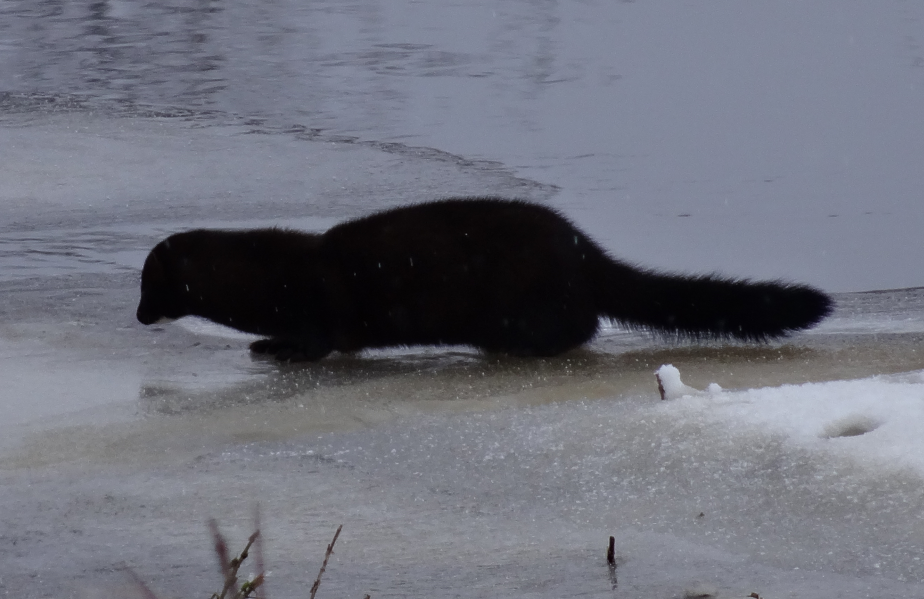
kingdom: Animalia
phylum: Chordata
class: Mammalia
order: Carnivora
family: Mustelidae
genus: Mustela
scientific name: Mustela
